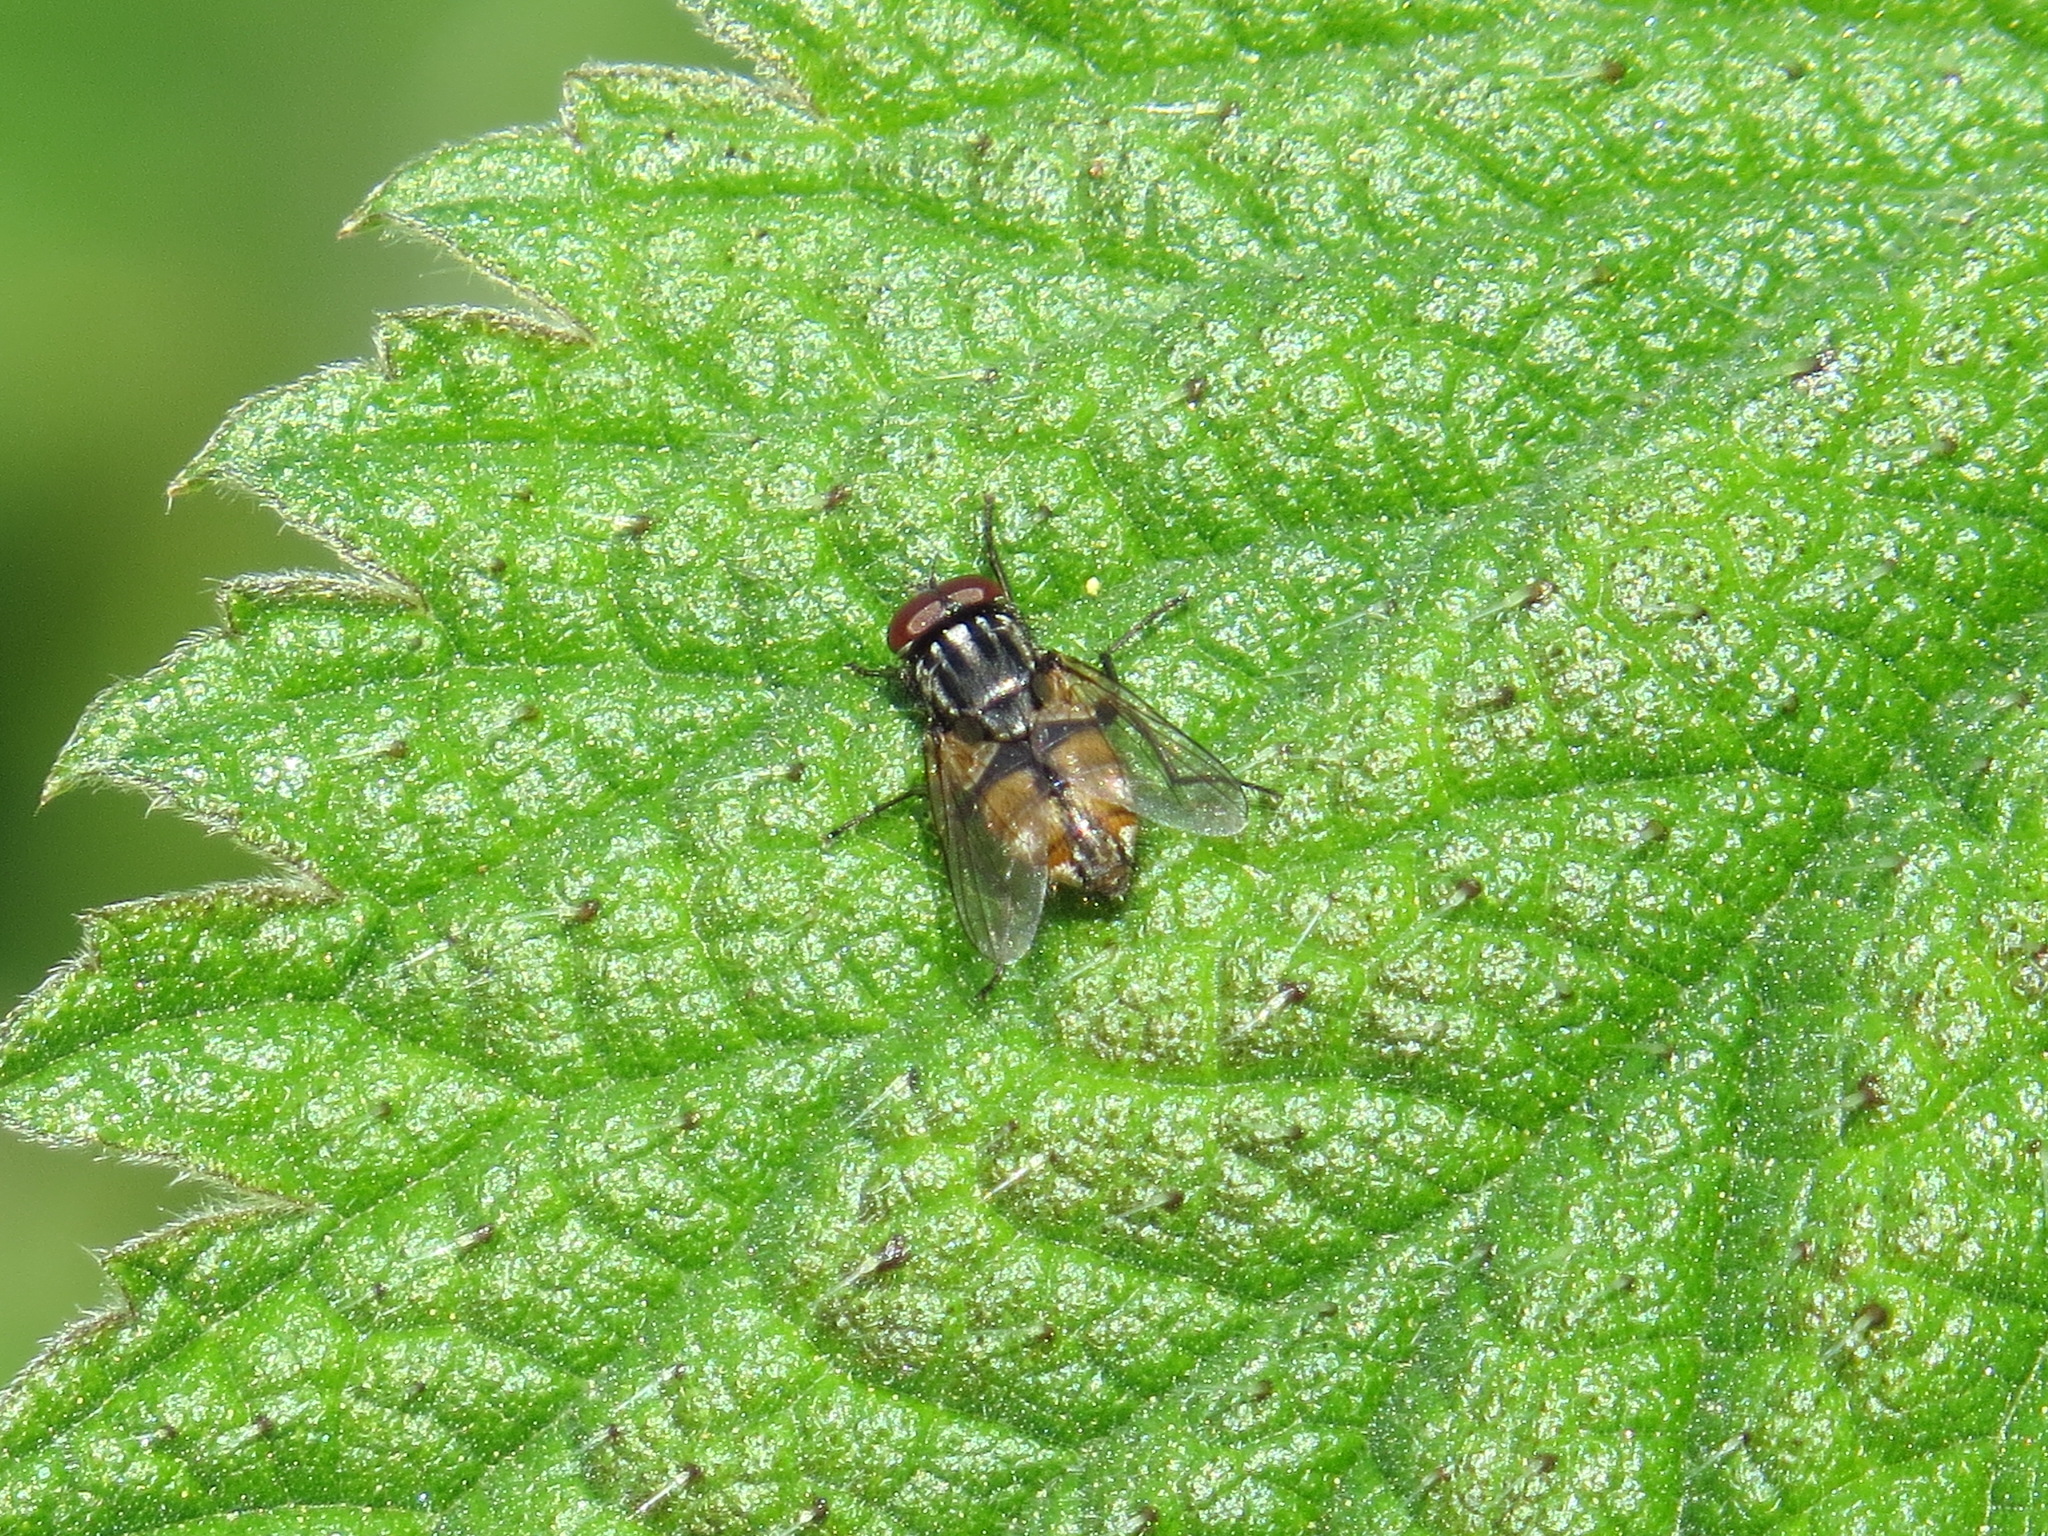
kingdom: Animalia
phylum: Arthropoda
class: Insecta
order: Diptera
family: Muscidae
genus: Musca
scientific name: Musca autumnalis
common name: Face fly
